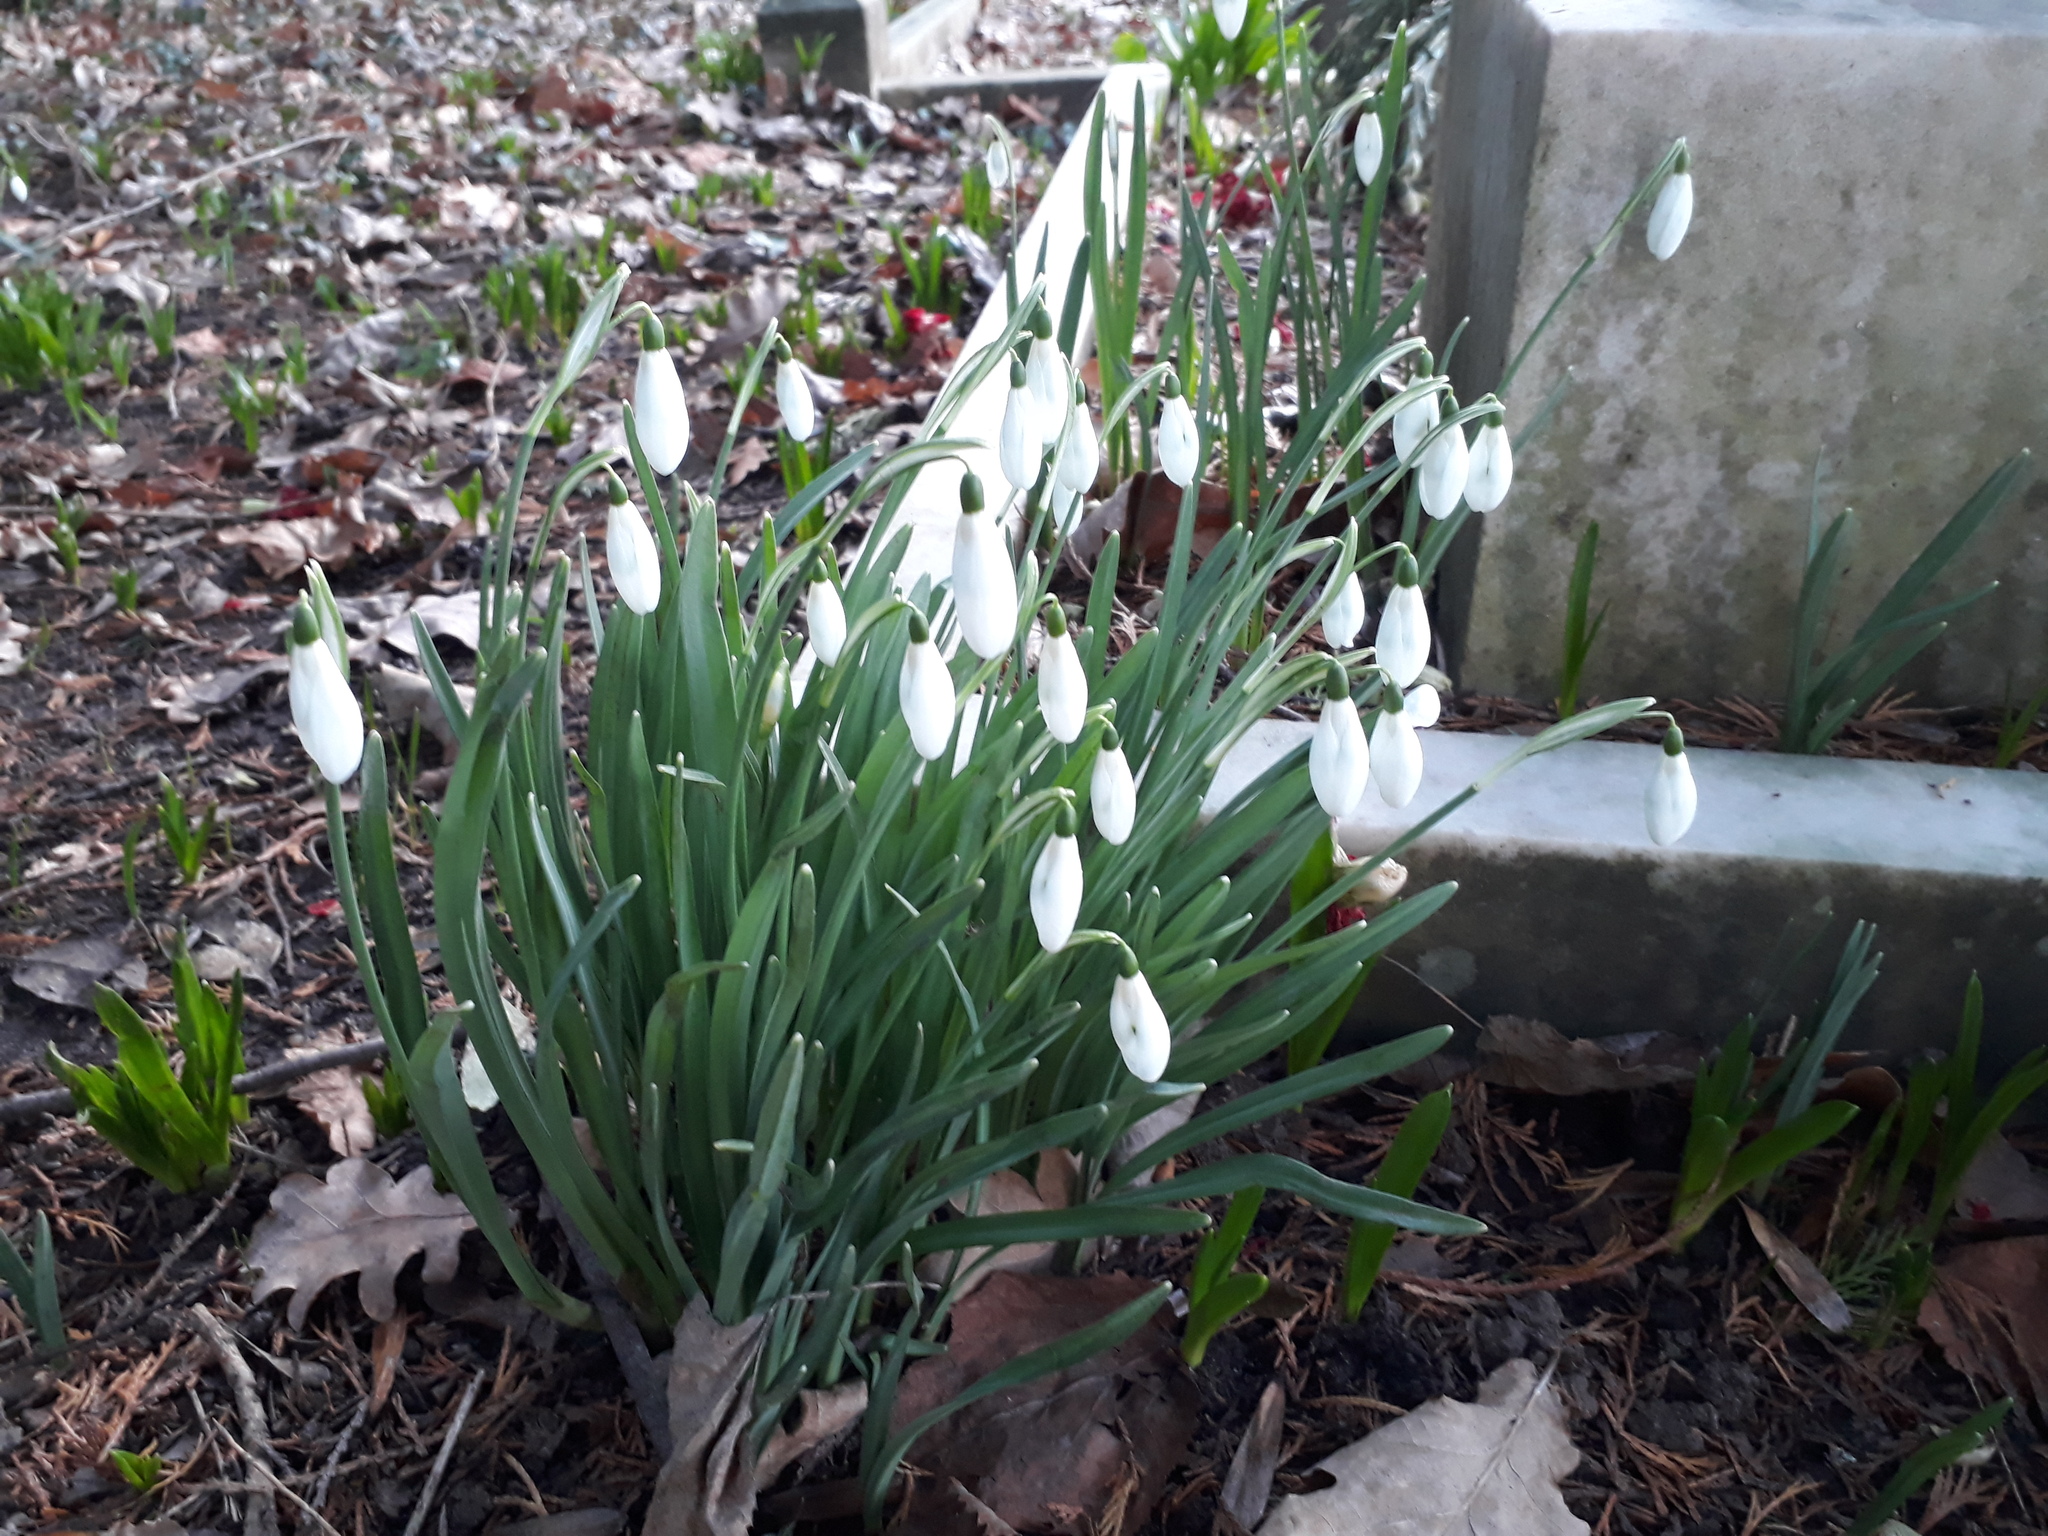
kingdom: Plantae
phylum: Tracheophyta
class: Liliopsida
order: Asparagales
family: Amaryllidaceae
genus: Galanthus
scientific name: Galanthus nivalis
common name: Snowdrop
